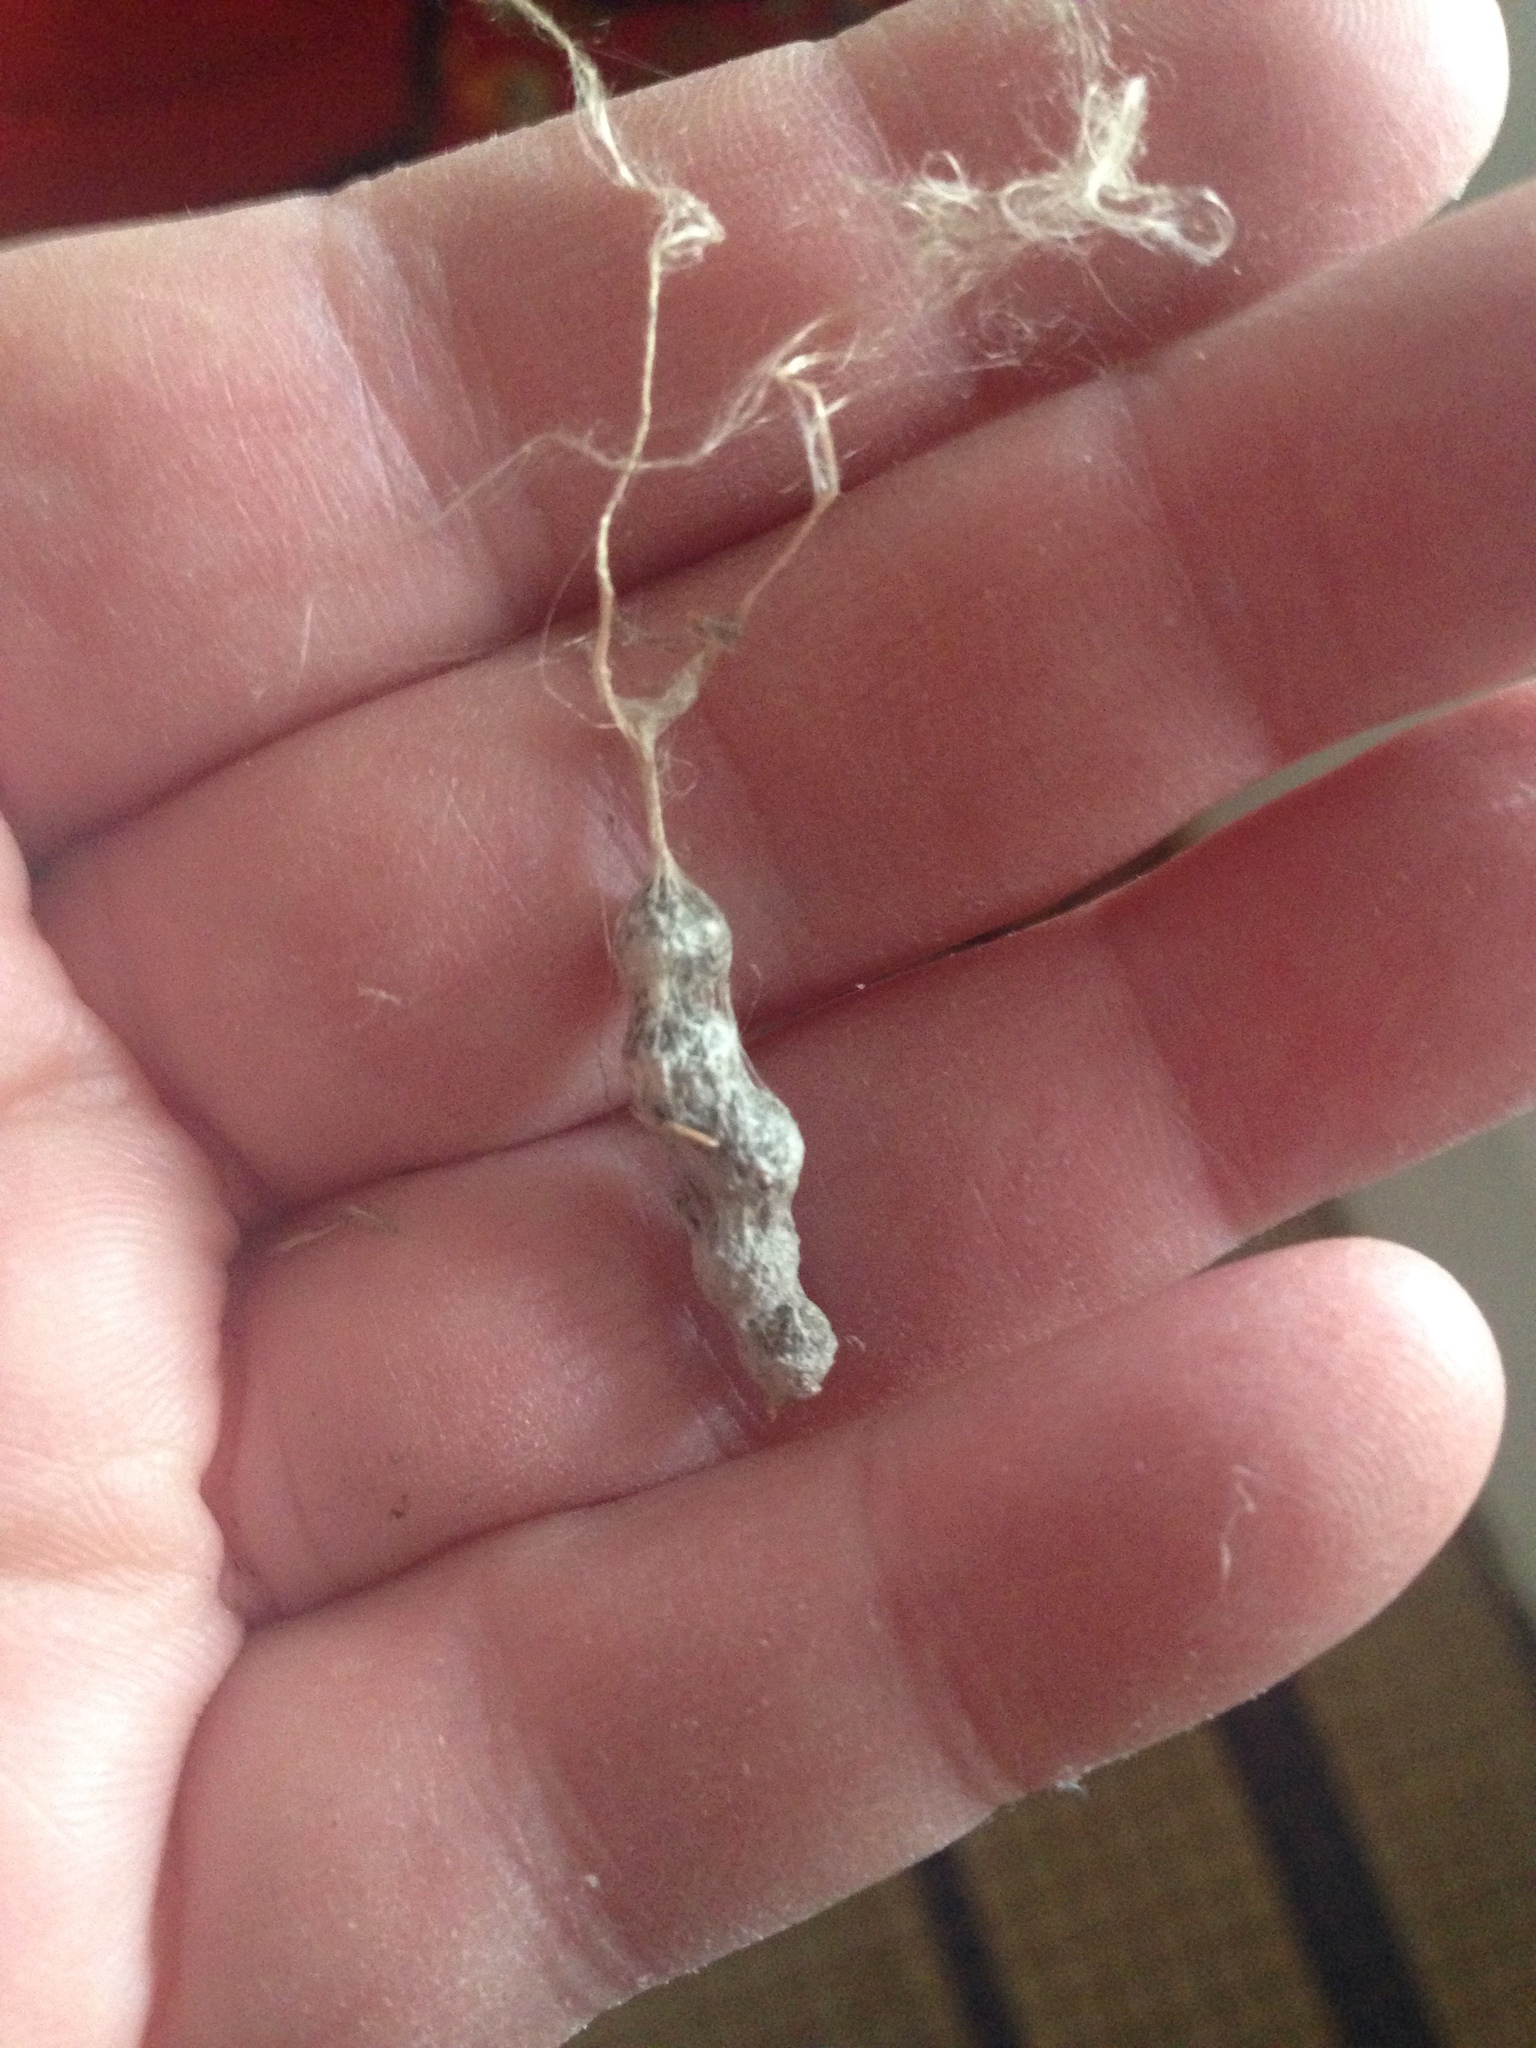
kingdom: Animalia
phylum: Arthropoda
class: Arachnida
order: Araneae
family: Araneidae
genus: Mecynogea
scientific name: Mecynogea lemniscata
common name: Orb weavers
